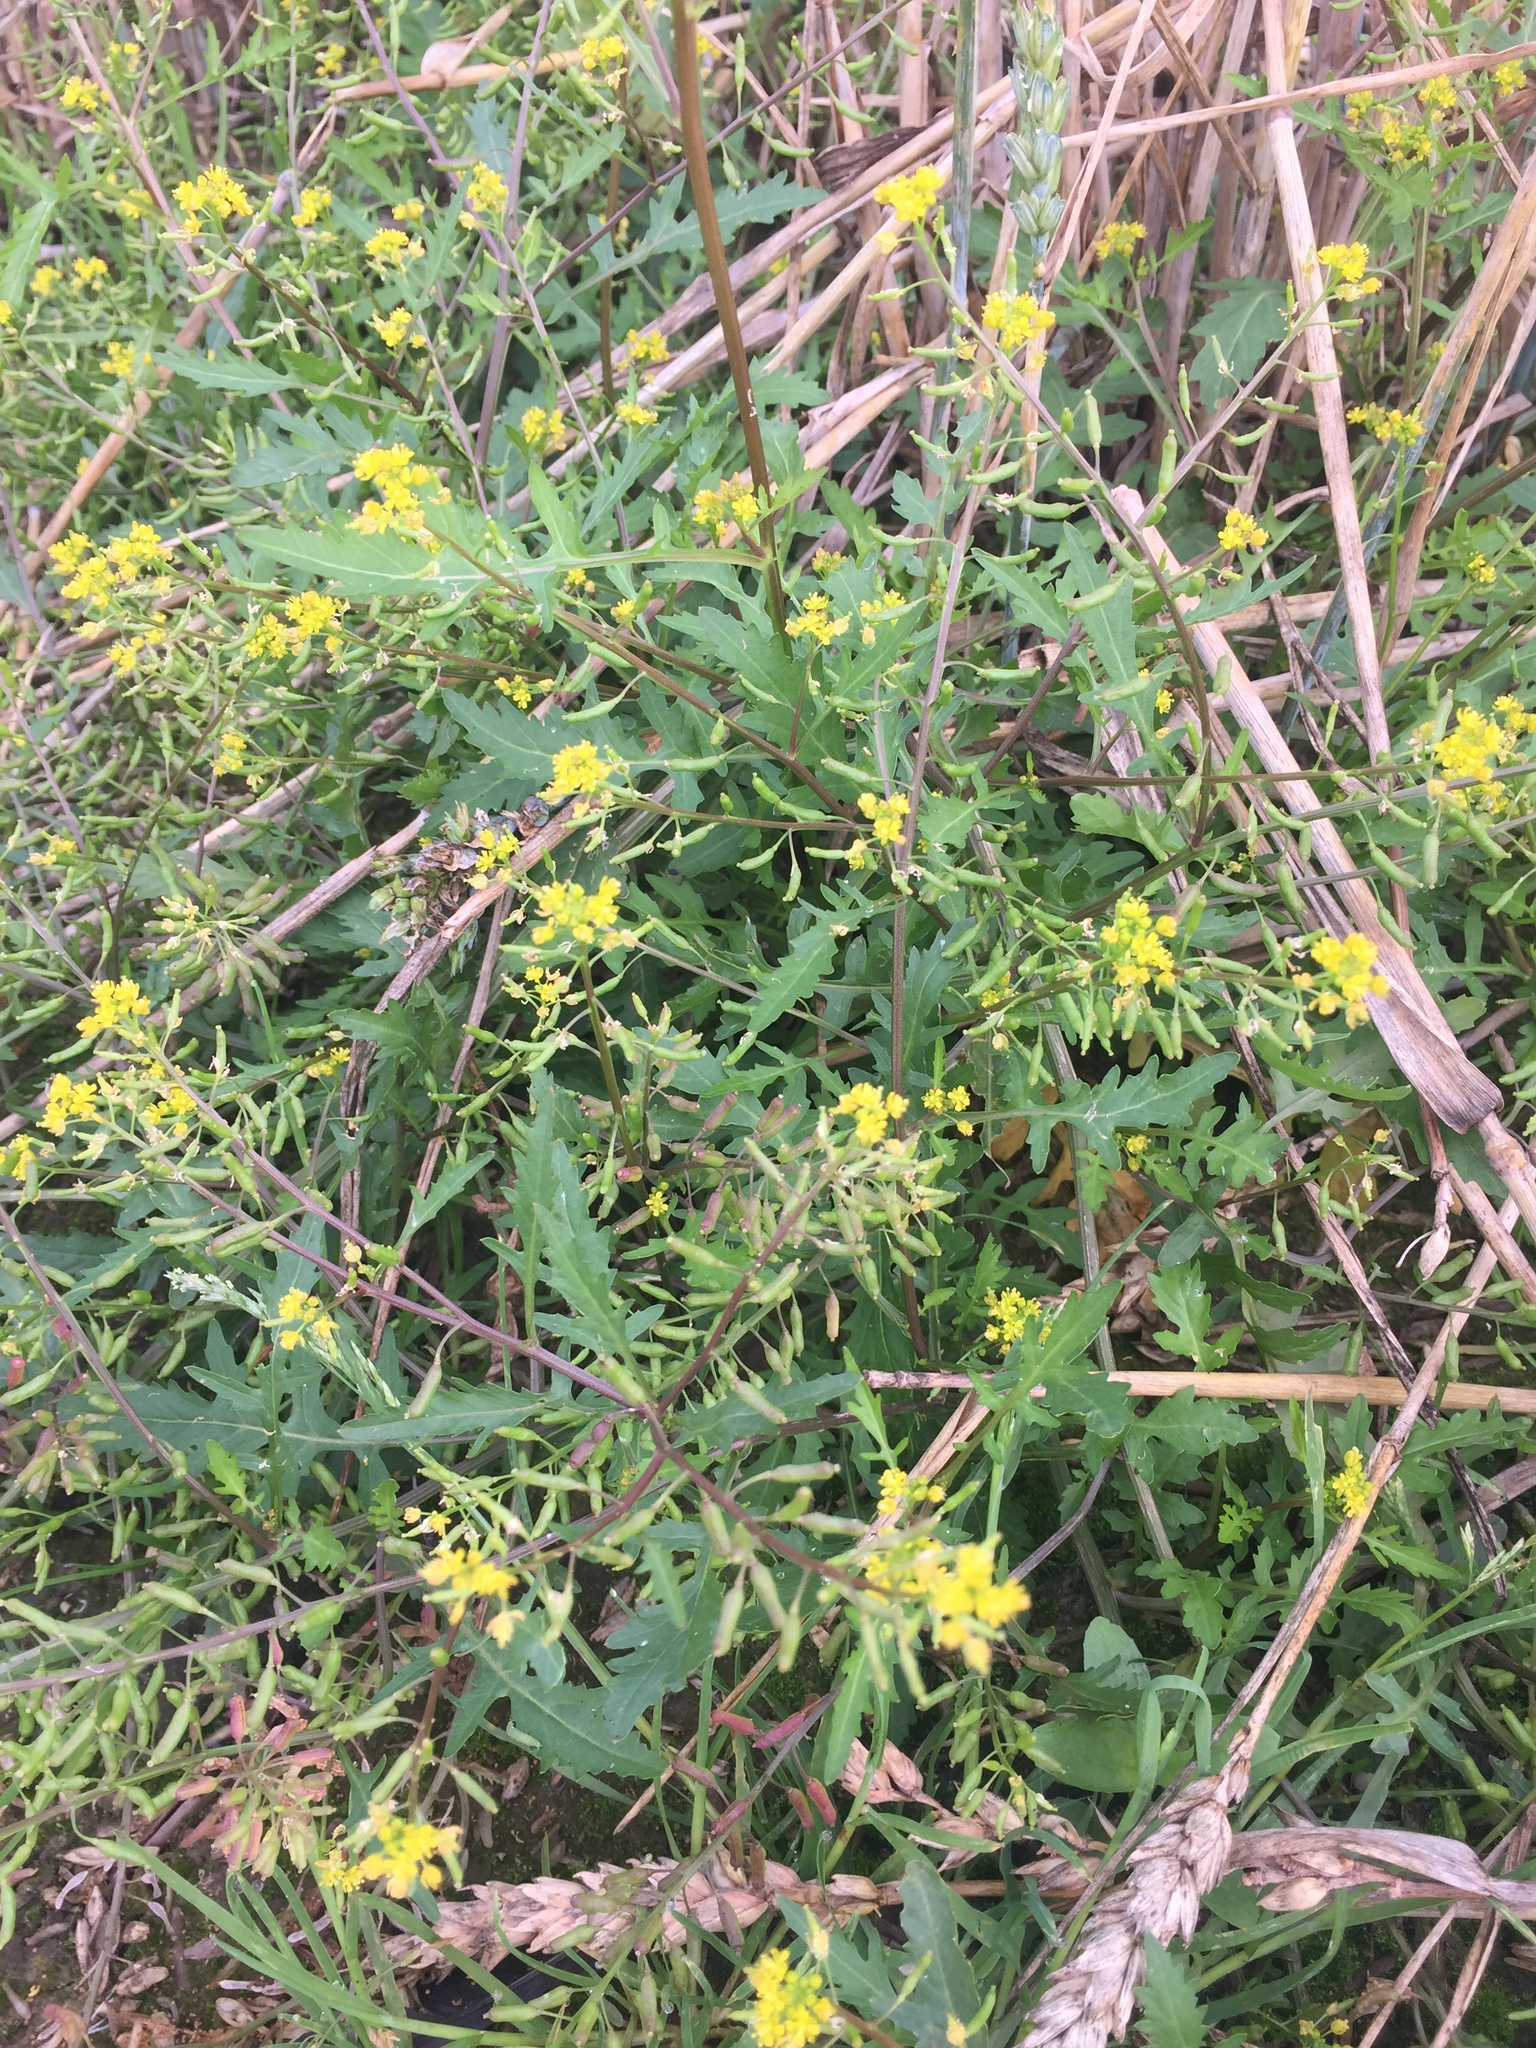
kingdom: Plantae
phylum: Tracheophyta
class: Magnoliopsida
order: Brassicales
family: Brassicaceae
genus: Rorippa
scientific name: Rorippa sylvestris
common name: Creeping yellowcress
